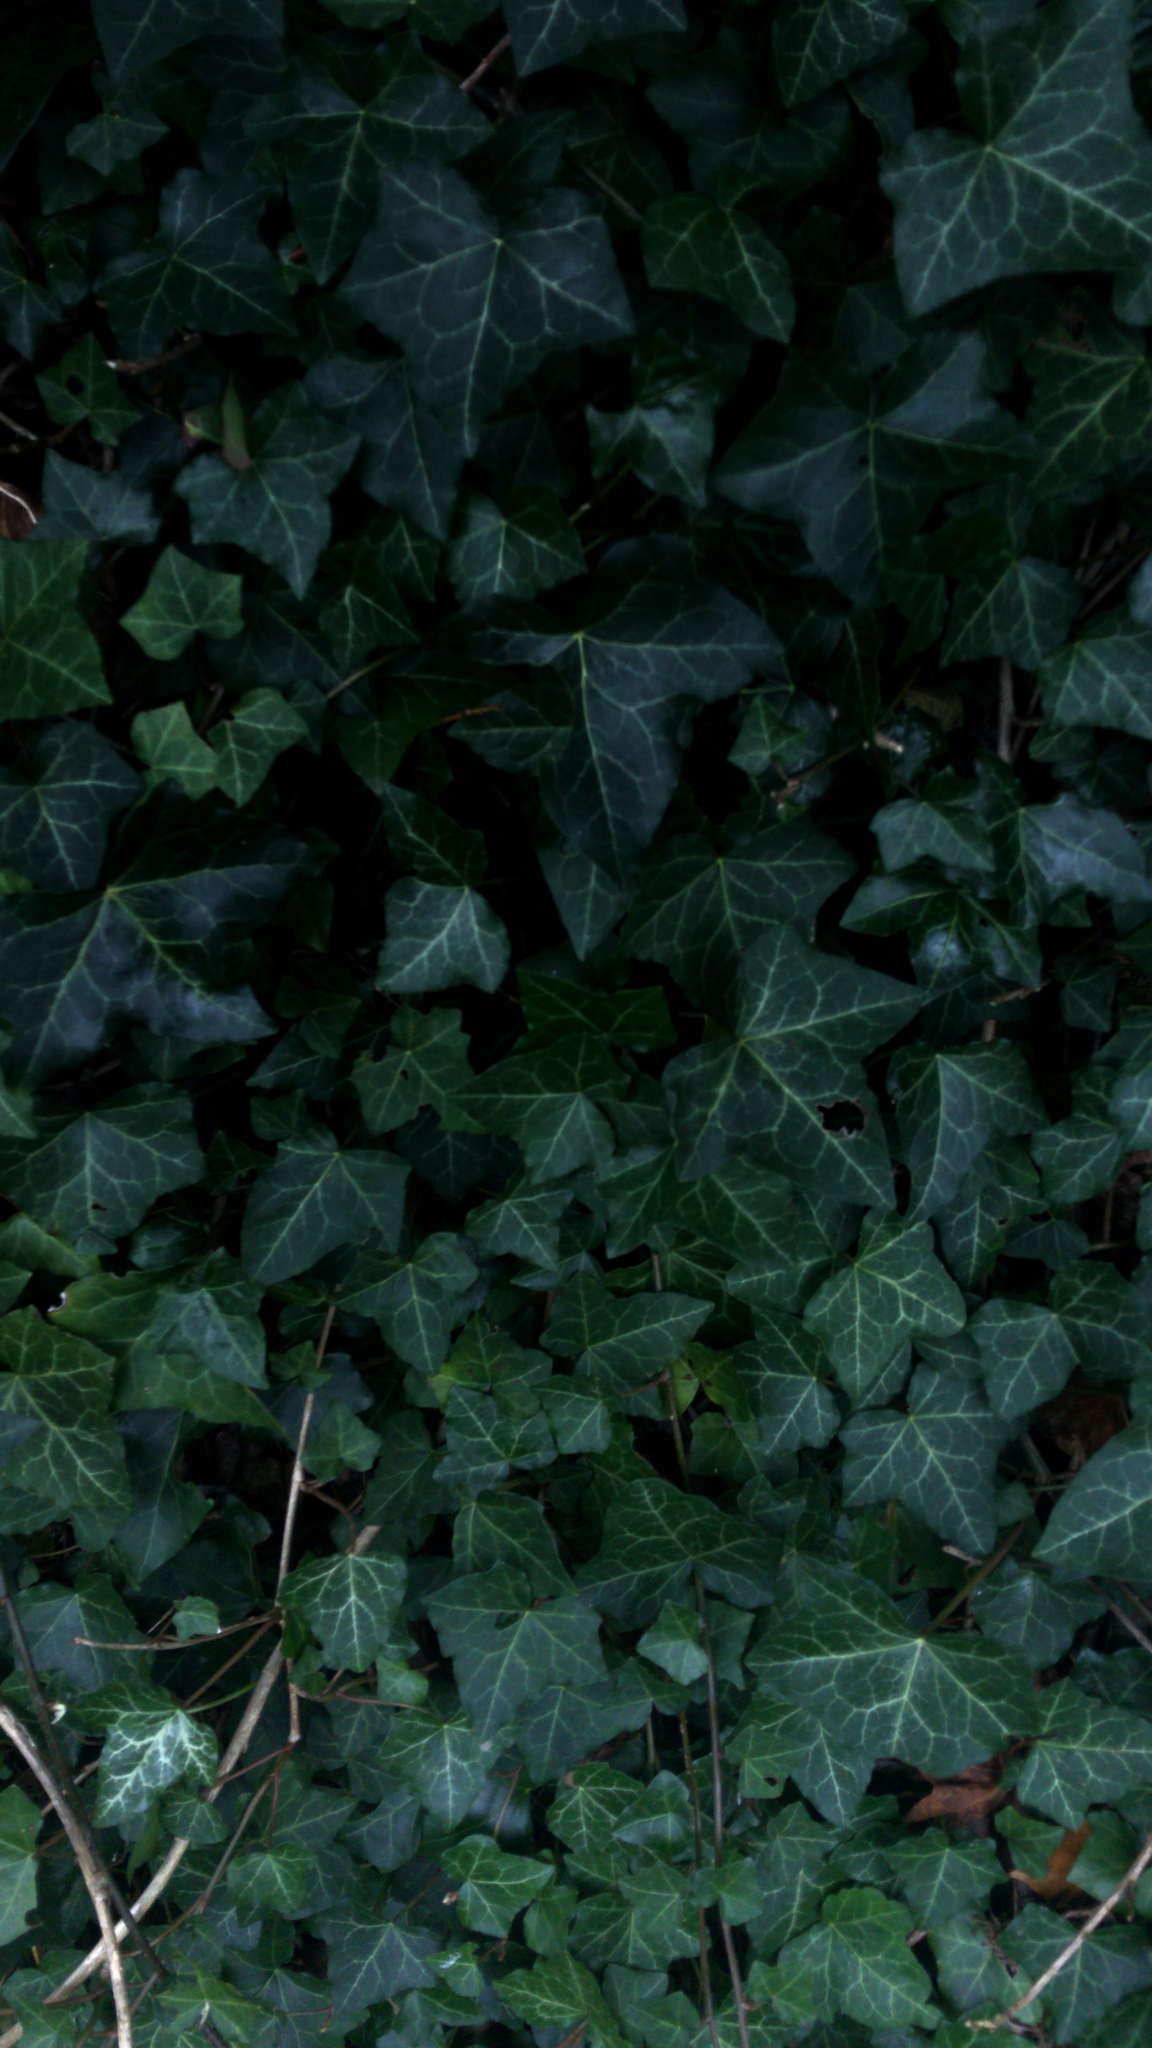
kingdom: Plantae
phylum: Tracheophyta
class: Magnoliopsida
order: Apiales
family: Araliaceae
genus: Hedera
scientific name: Hedera helix
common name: Ivy
